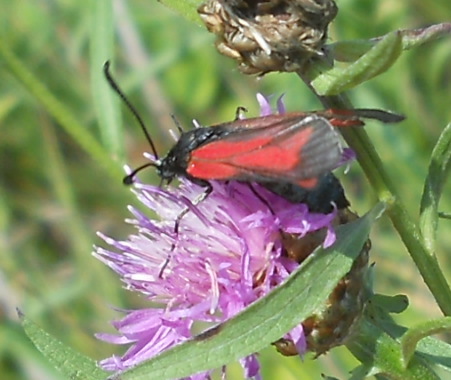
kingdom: Animalia
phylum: Arthropoda
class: Insecta
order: Lepidoptera
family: Zygaenidae
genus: Zygaena
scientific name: Zygaena purpuralis
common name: Transparent burnet
